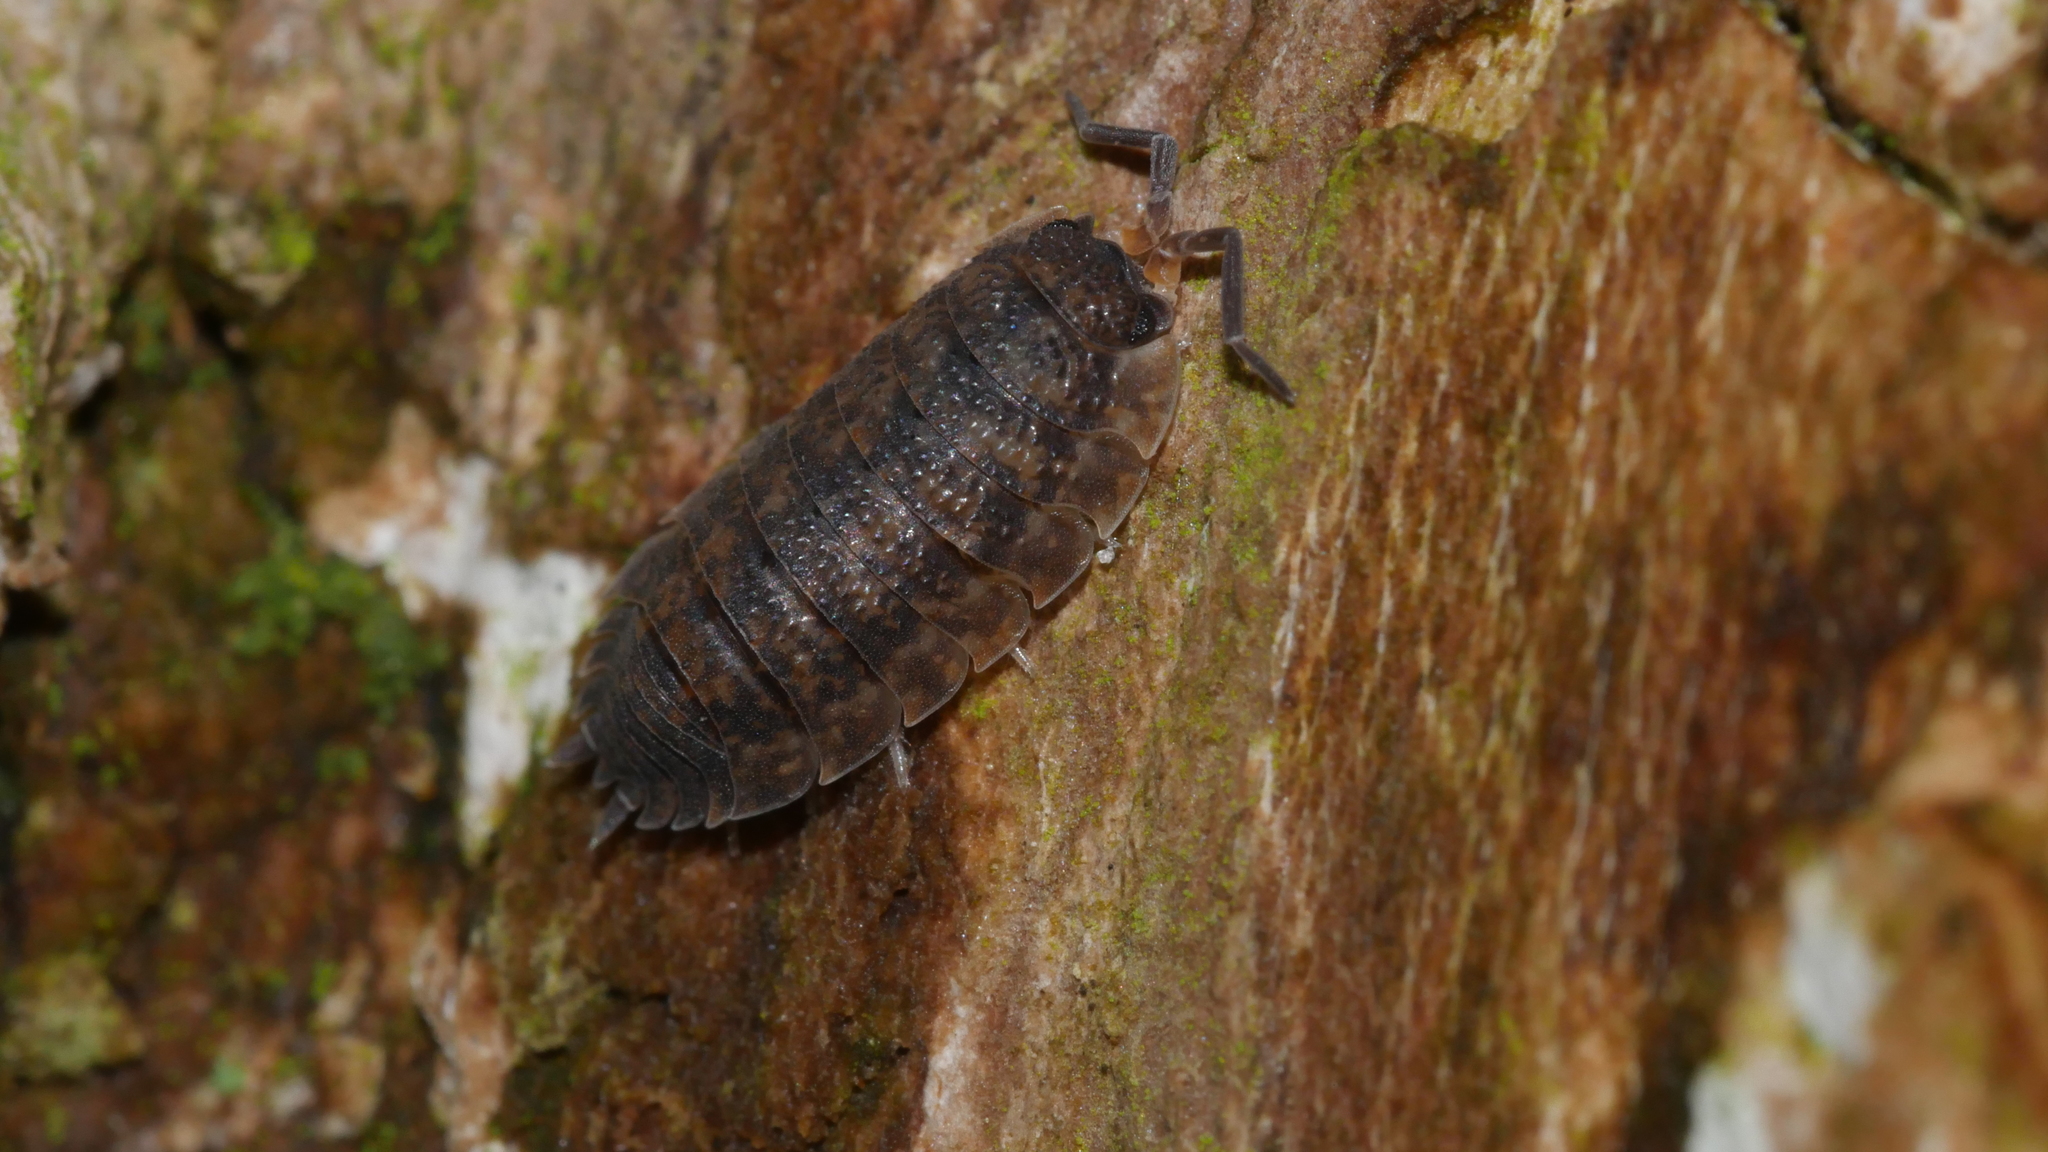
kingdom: Animalia
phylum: Arthropoda
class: Malacostraca
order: Isopoda
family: Porcellionidae
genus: Porcellio
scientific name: Porcellio scaber
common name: Common rough woodlouse
